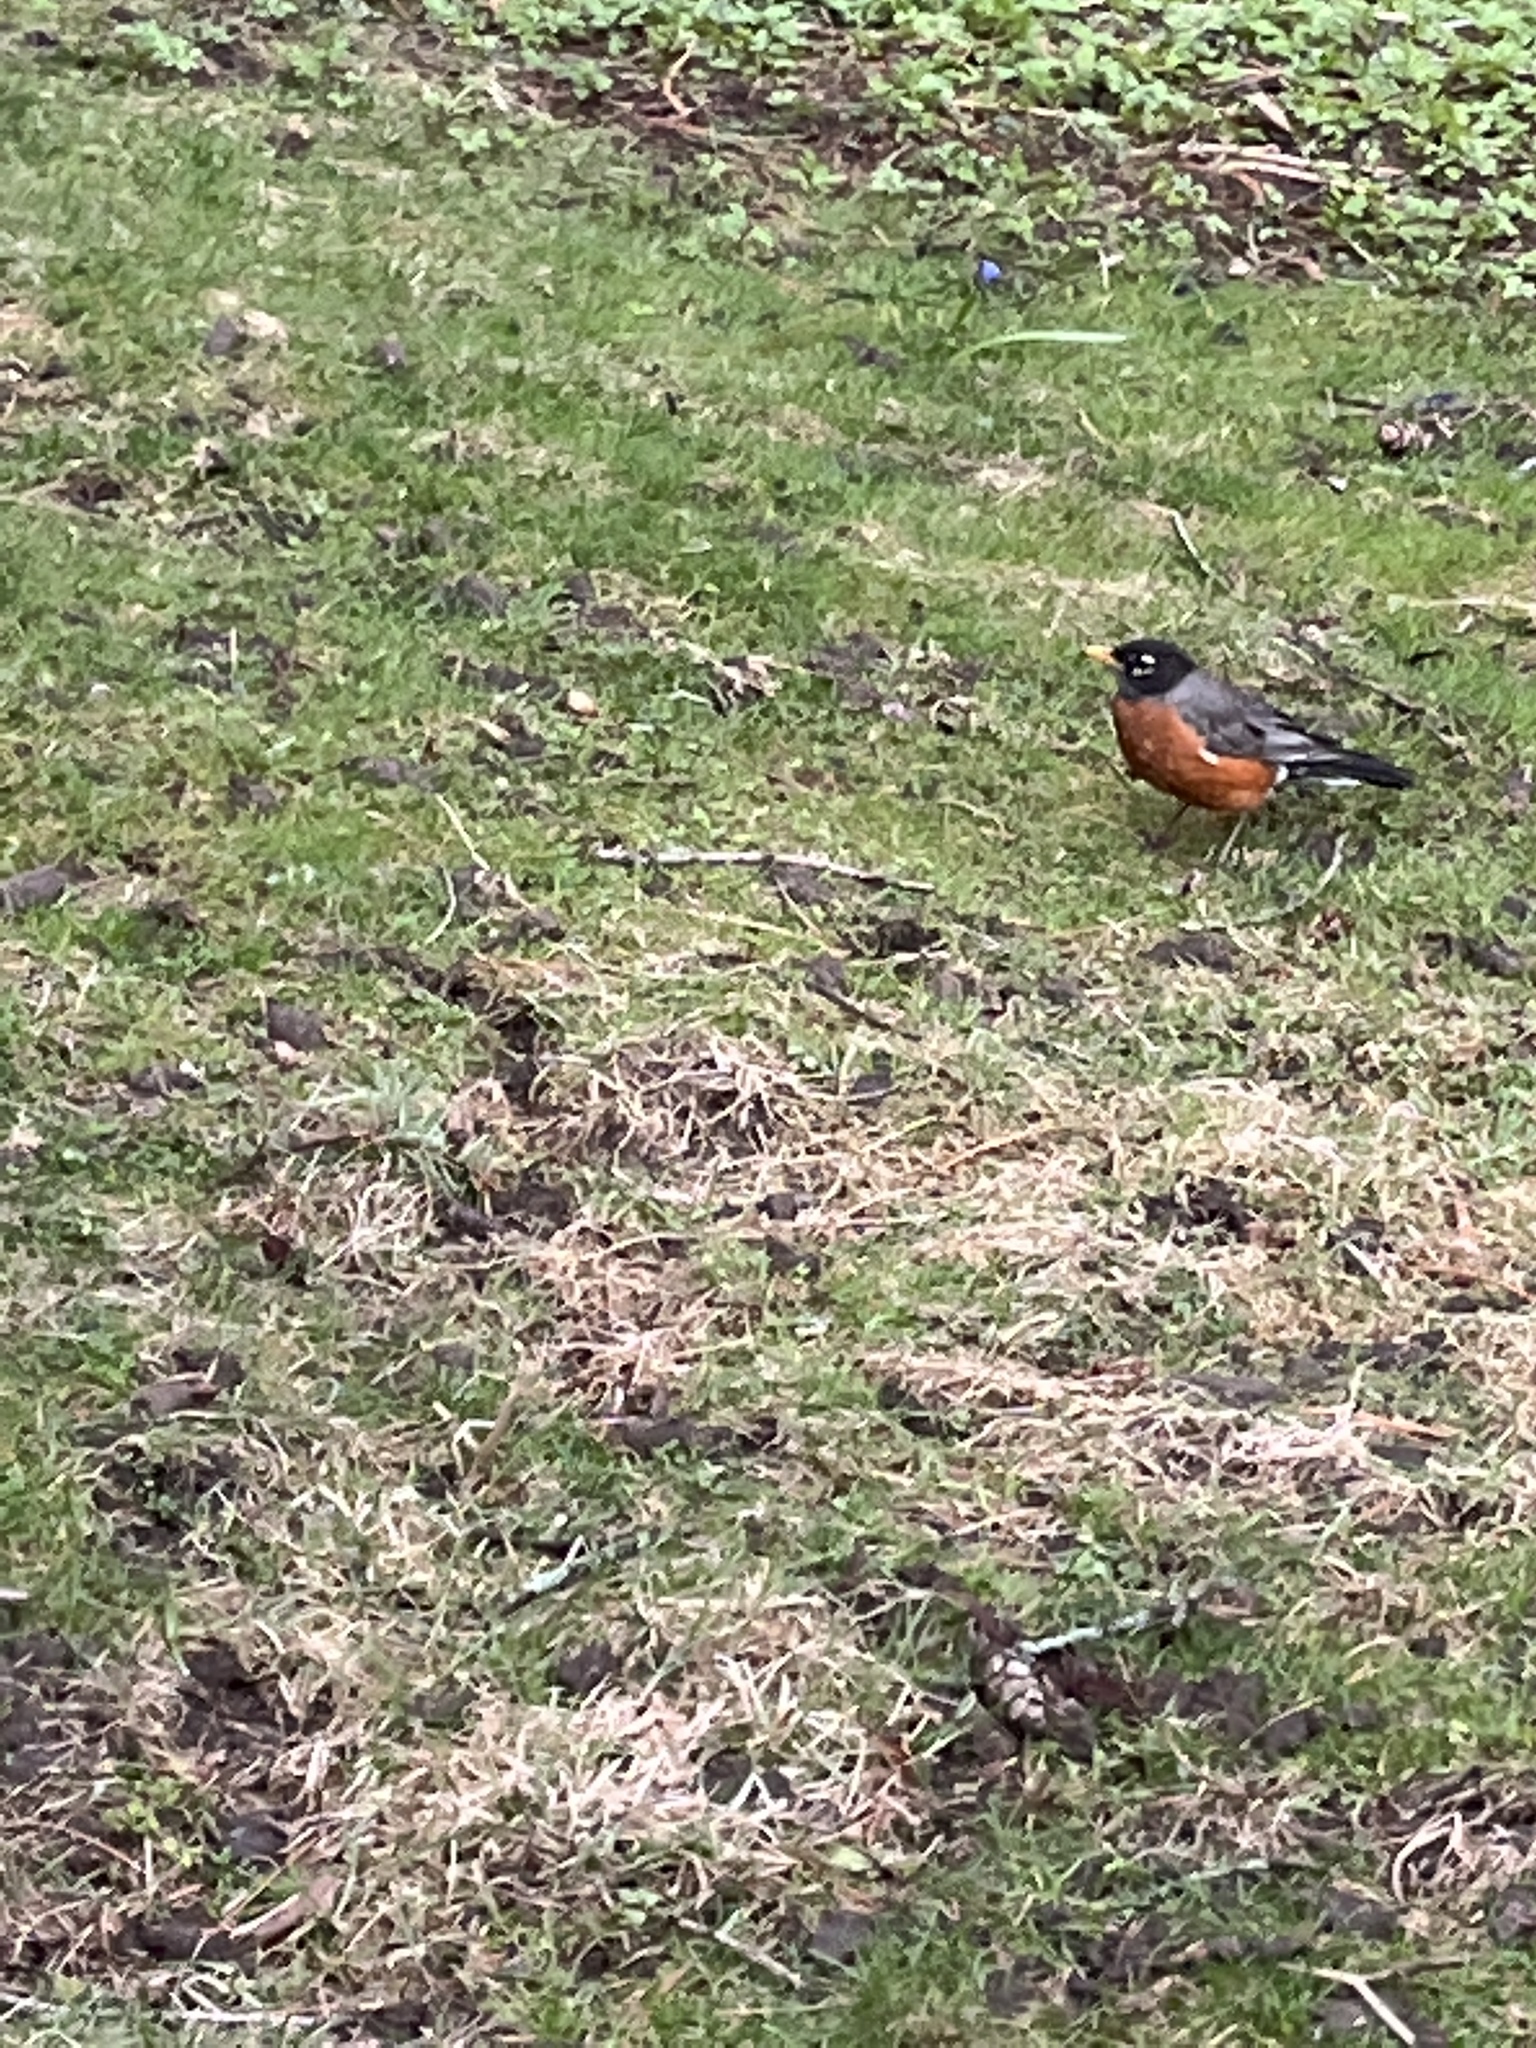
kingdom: Animalia
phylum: Chordata
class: Aves
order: Passeriformes
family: Turdidae
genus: Turdus
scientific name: Turdus migratorius
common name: American robin
